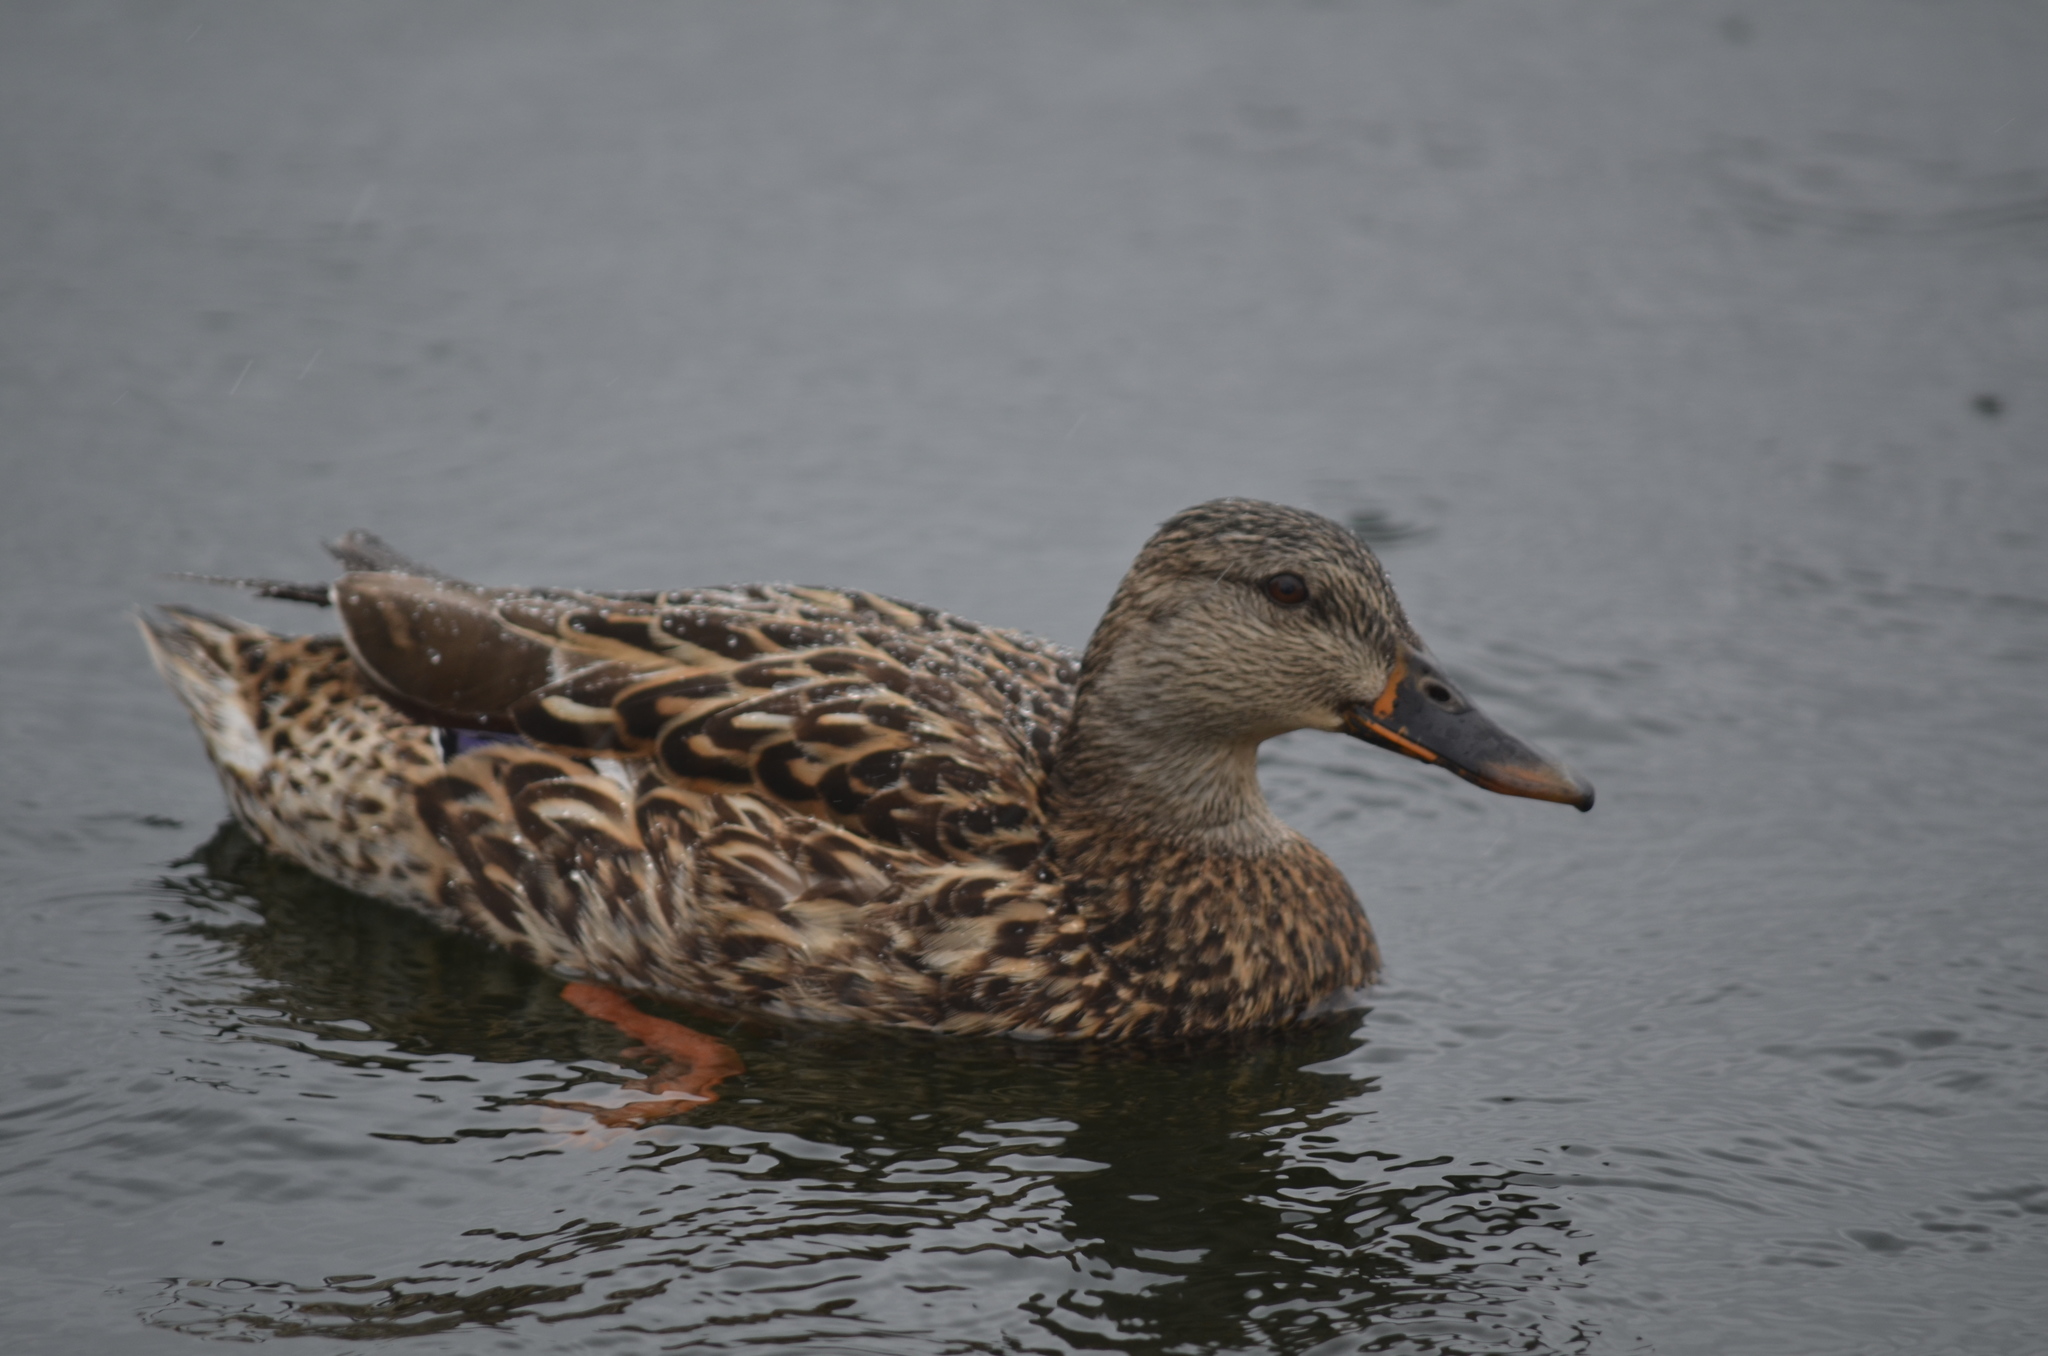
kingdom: Animalia
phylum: Chordata
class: Aves
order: Anseriformes
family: Anatidae
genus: Anas
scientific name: Anas platyrhynchos
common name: Mallard
